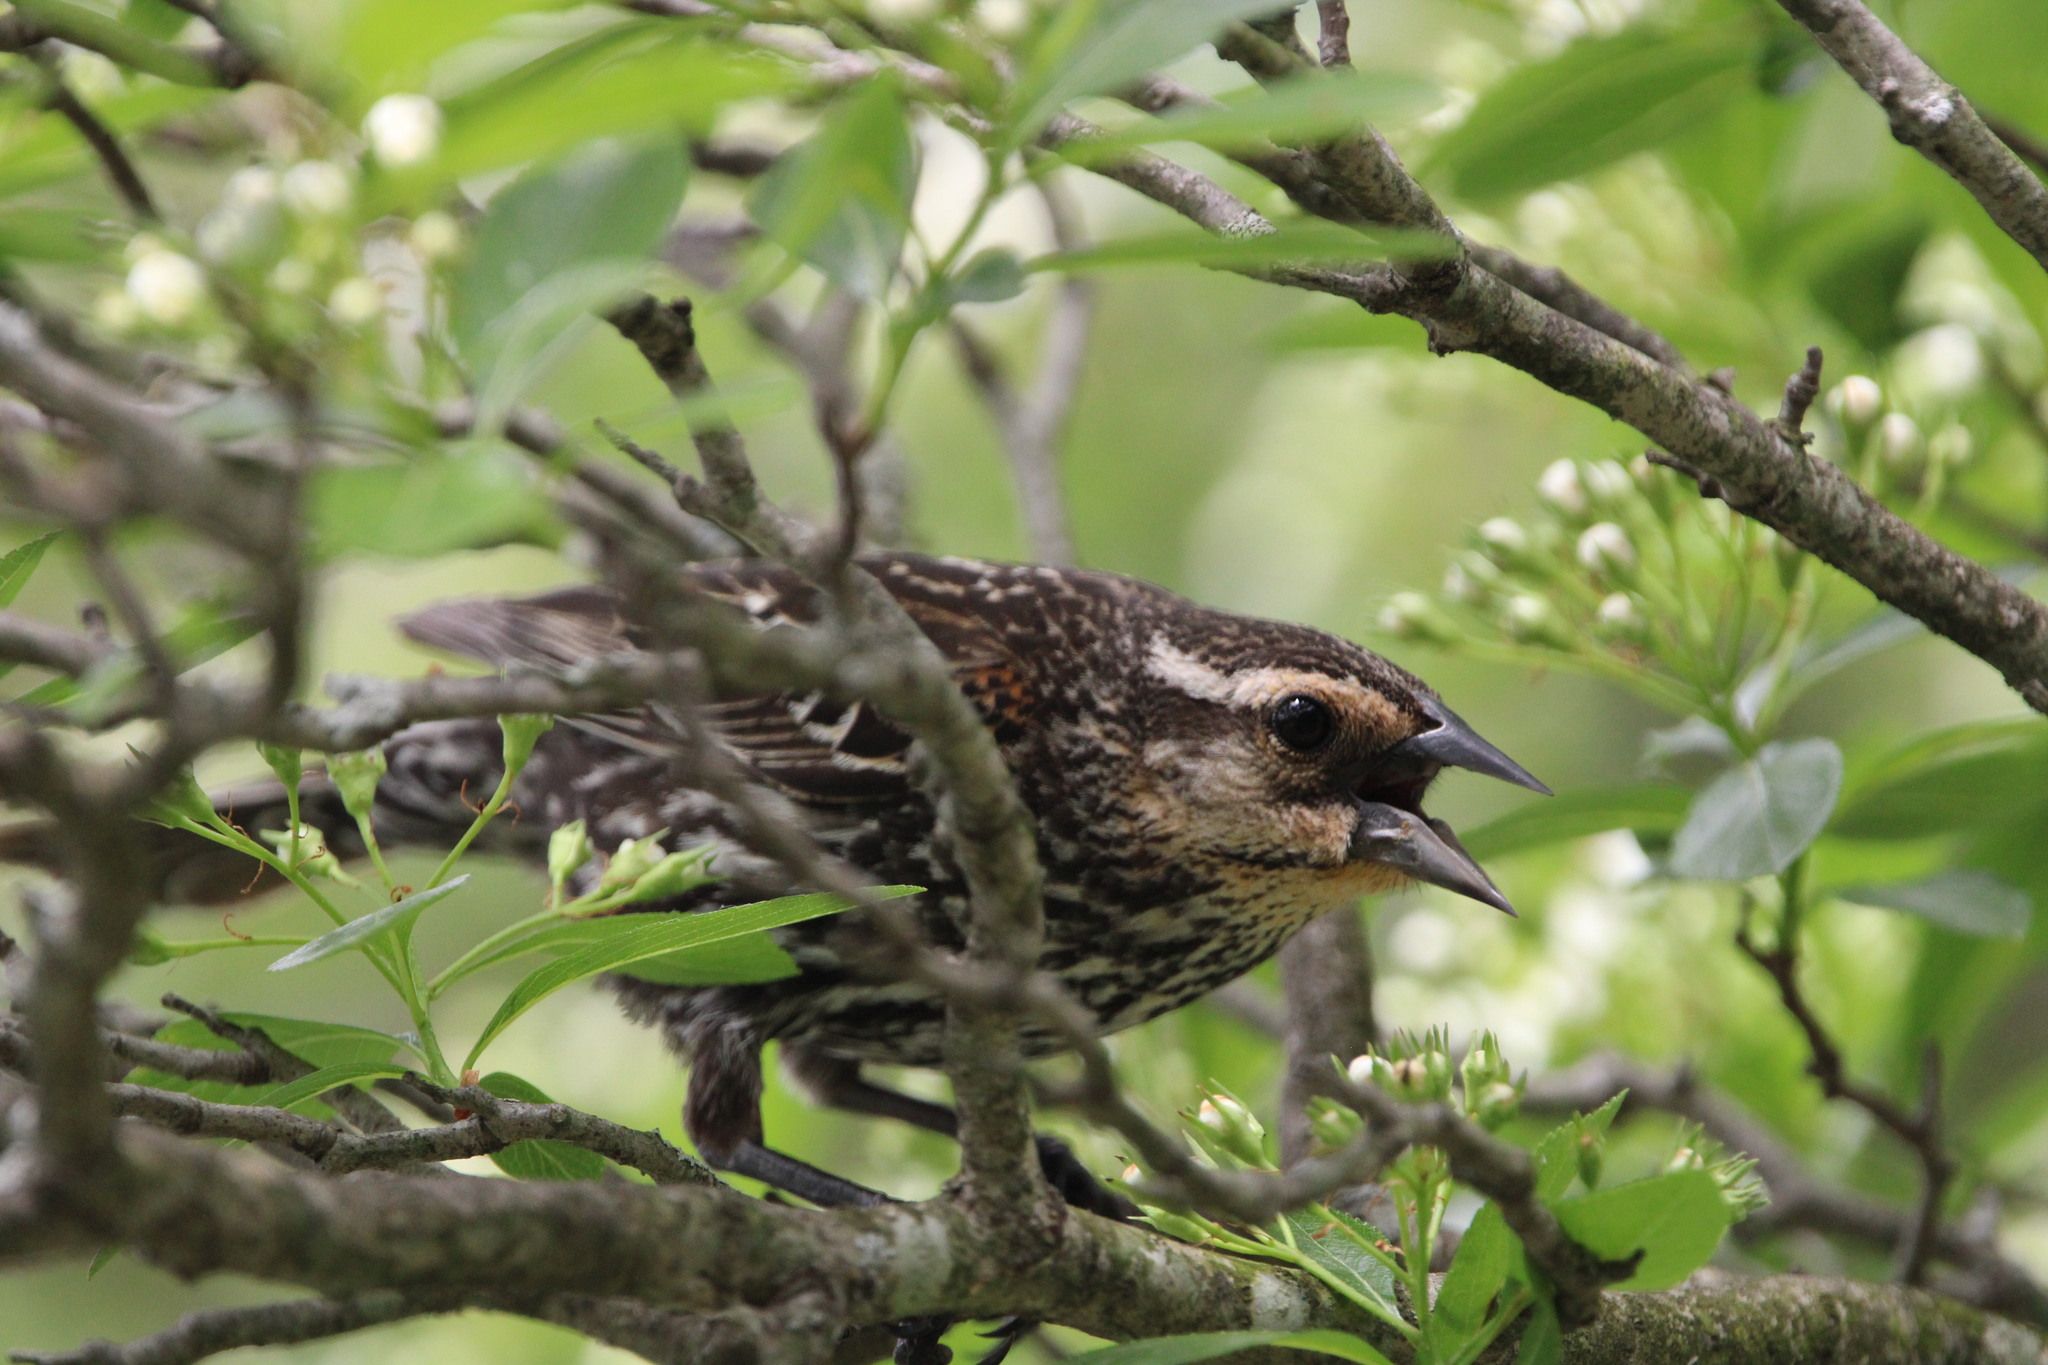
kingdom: Animalia
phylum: Chordata
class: Aves
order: Passeriformes
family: Icteridae
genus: Agelaius
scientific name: Agelaius phoeniceus
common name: Red-winged blackbird
